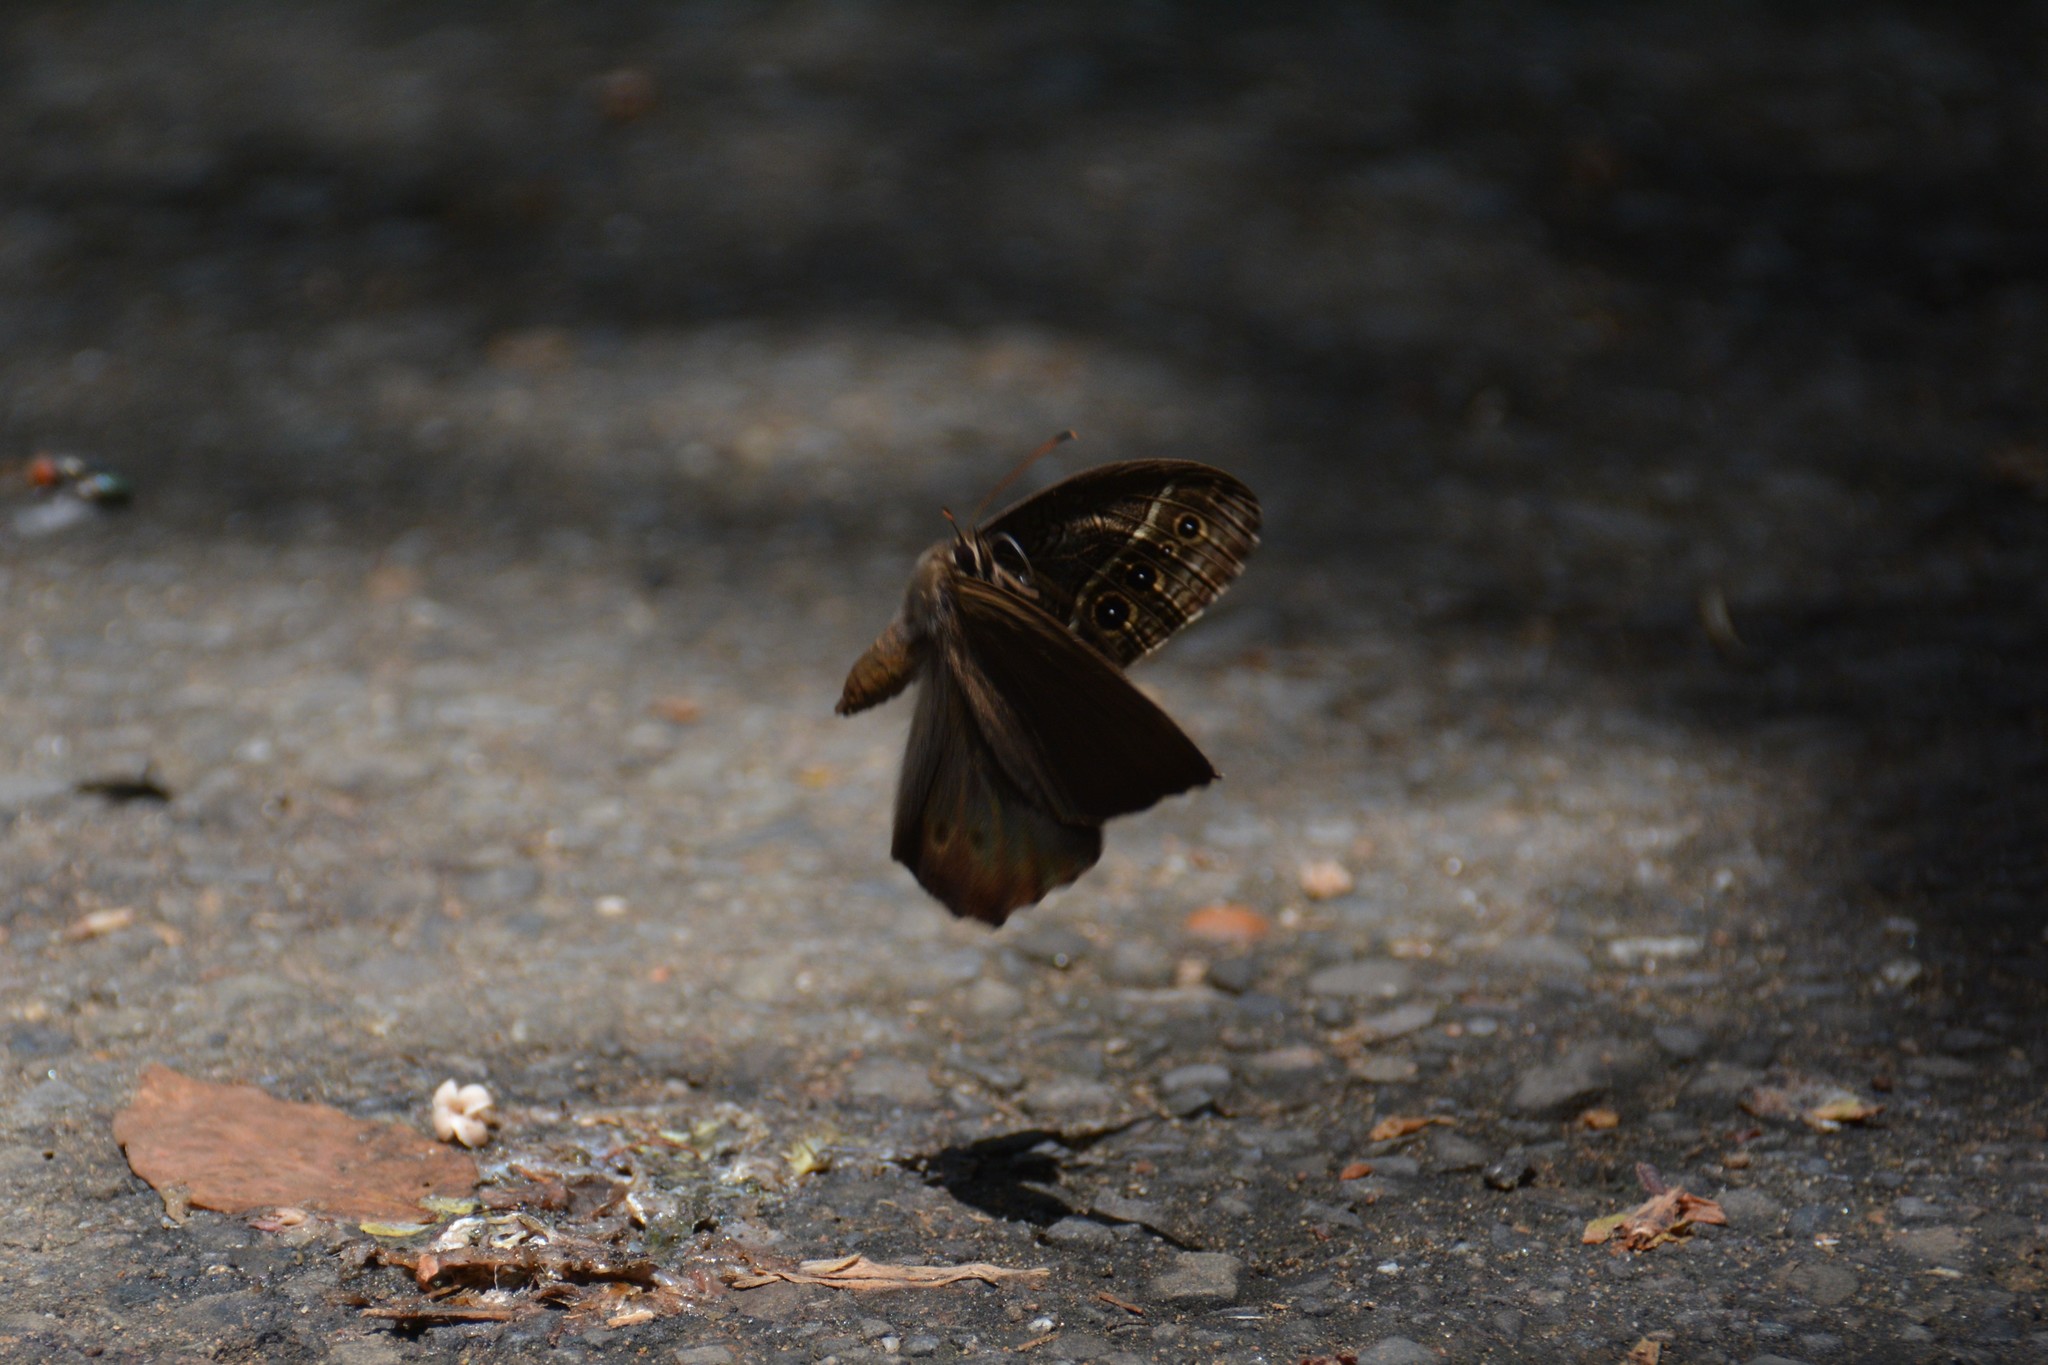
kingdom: Animalia
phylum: Arthropoda
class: Insecta
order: Lepidoptera
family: Nymphalidae
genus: Neope
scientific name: Neope muirheadii
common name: Black-spotted labyrinth
